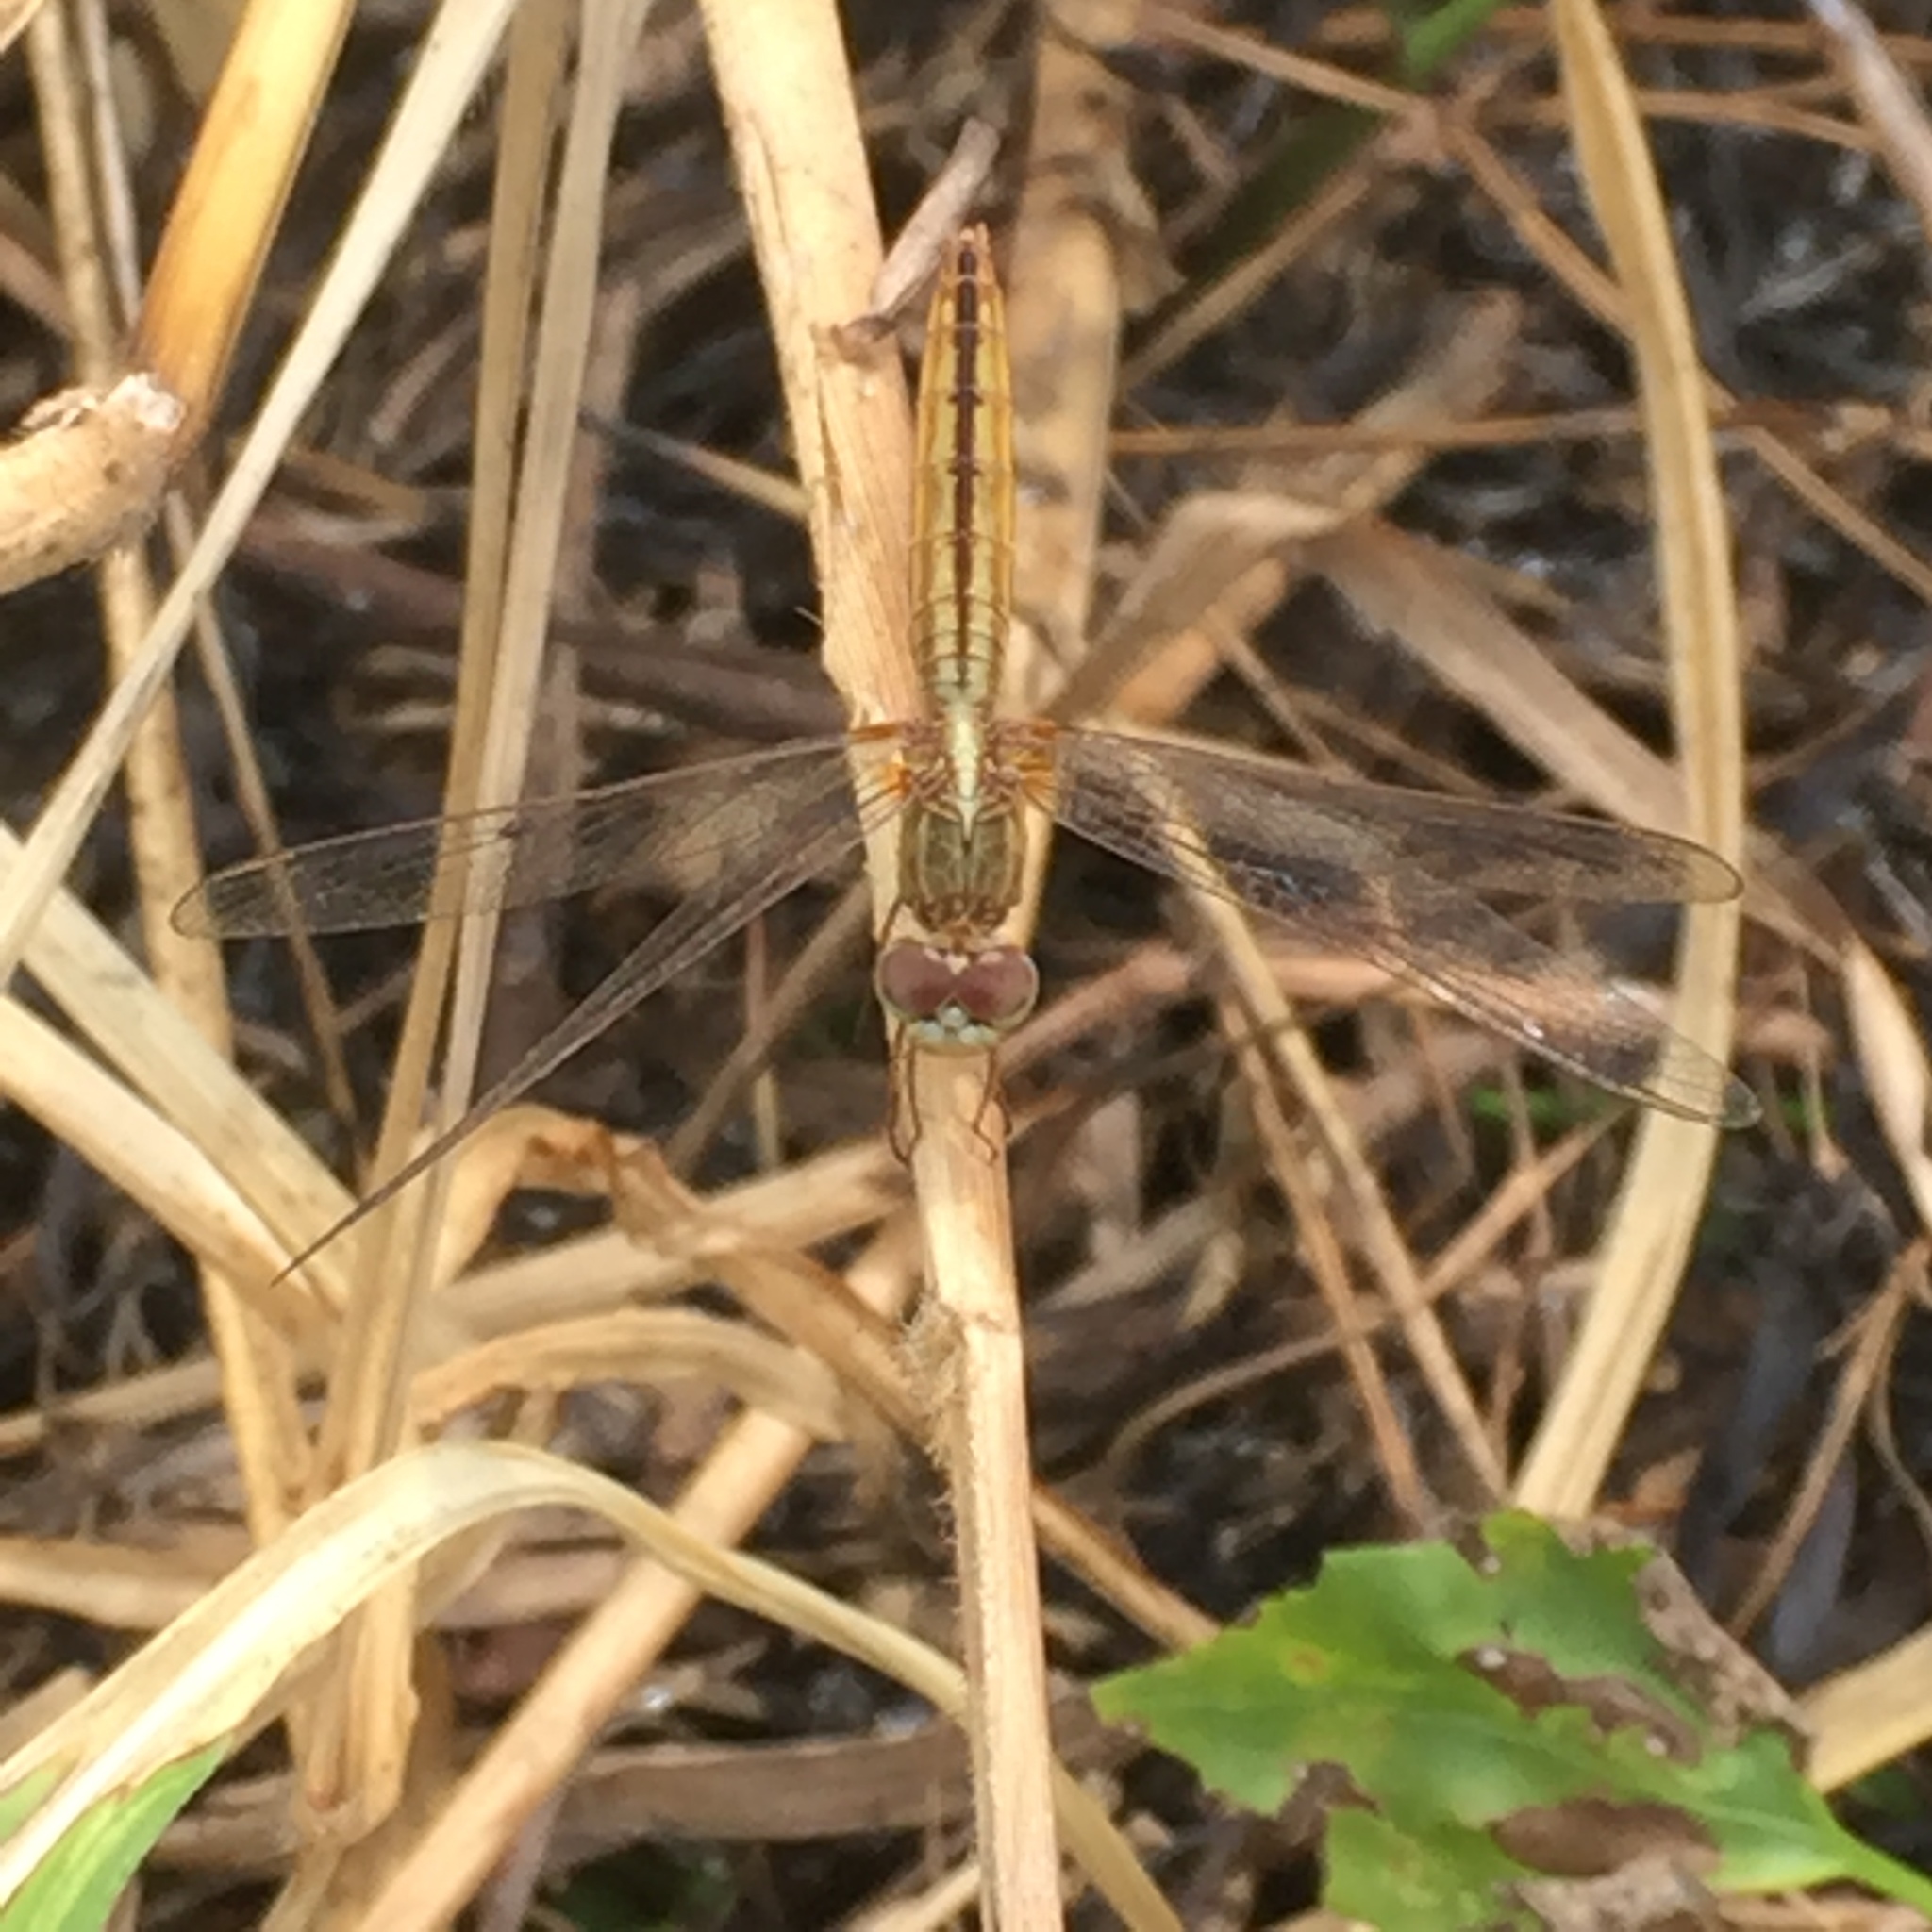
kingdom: Animalia
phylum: Arthropoda
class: Insecta
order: Odonata
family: Libellulidae
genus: Crocothemis
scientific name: Crocothemis servilia
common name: Scarlet skimmer
